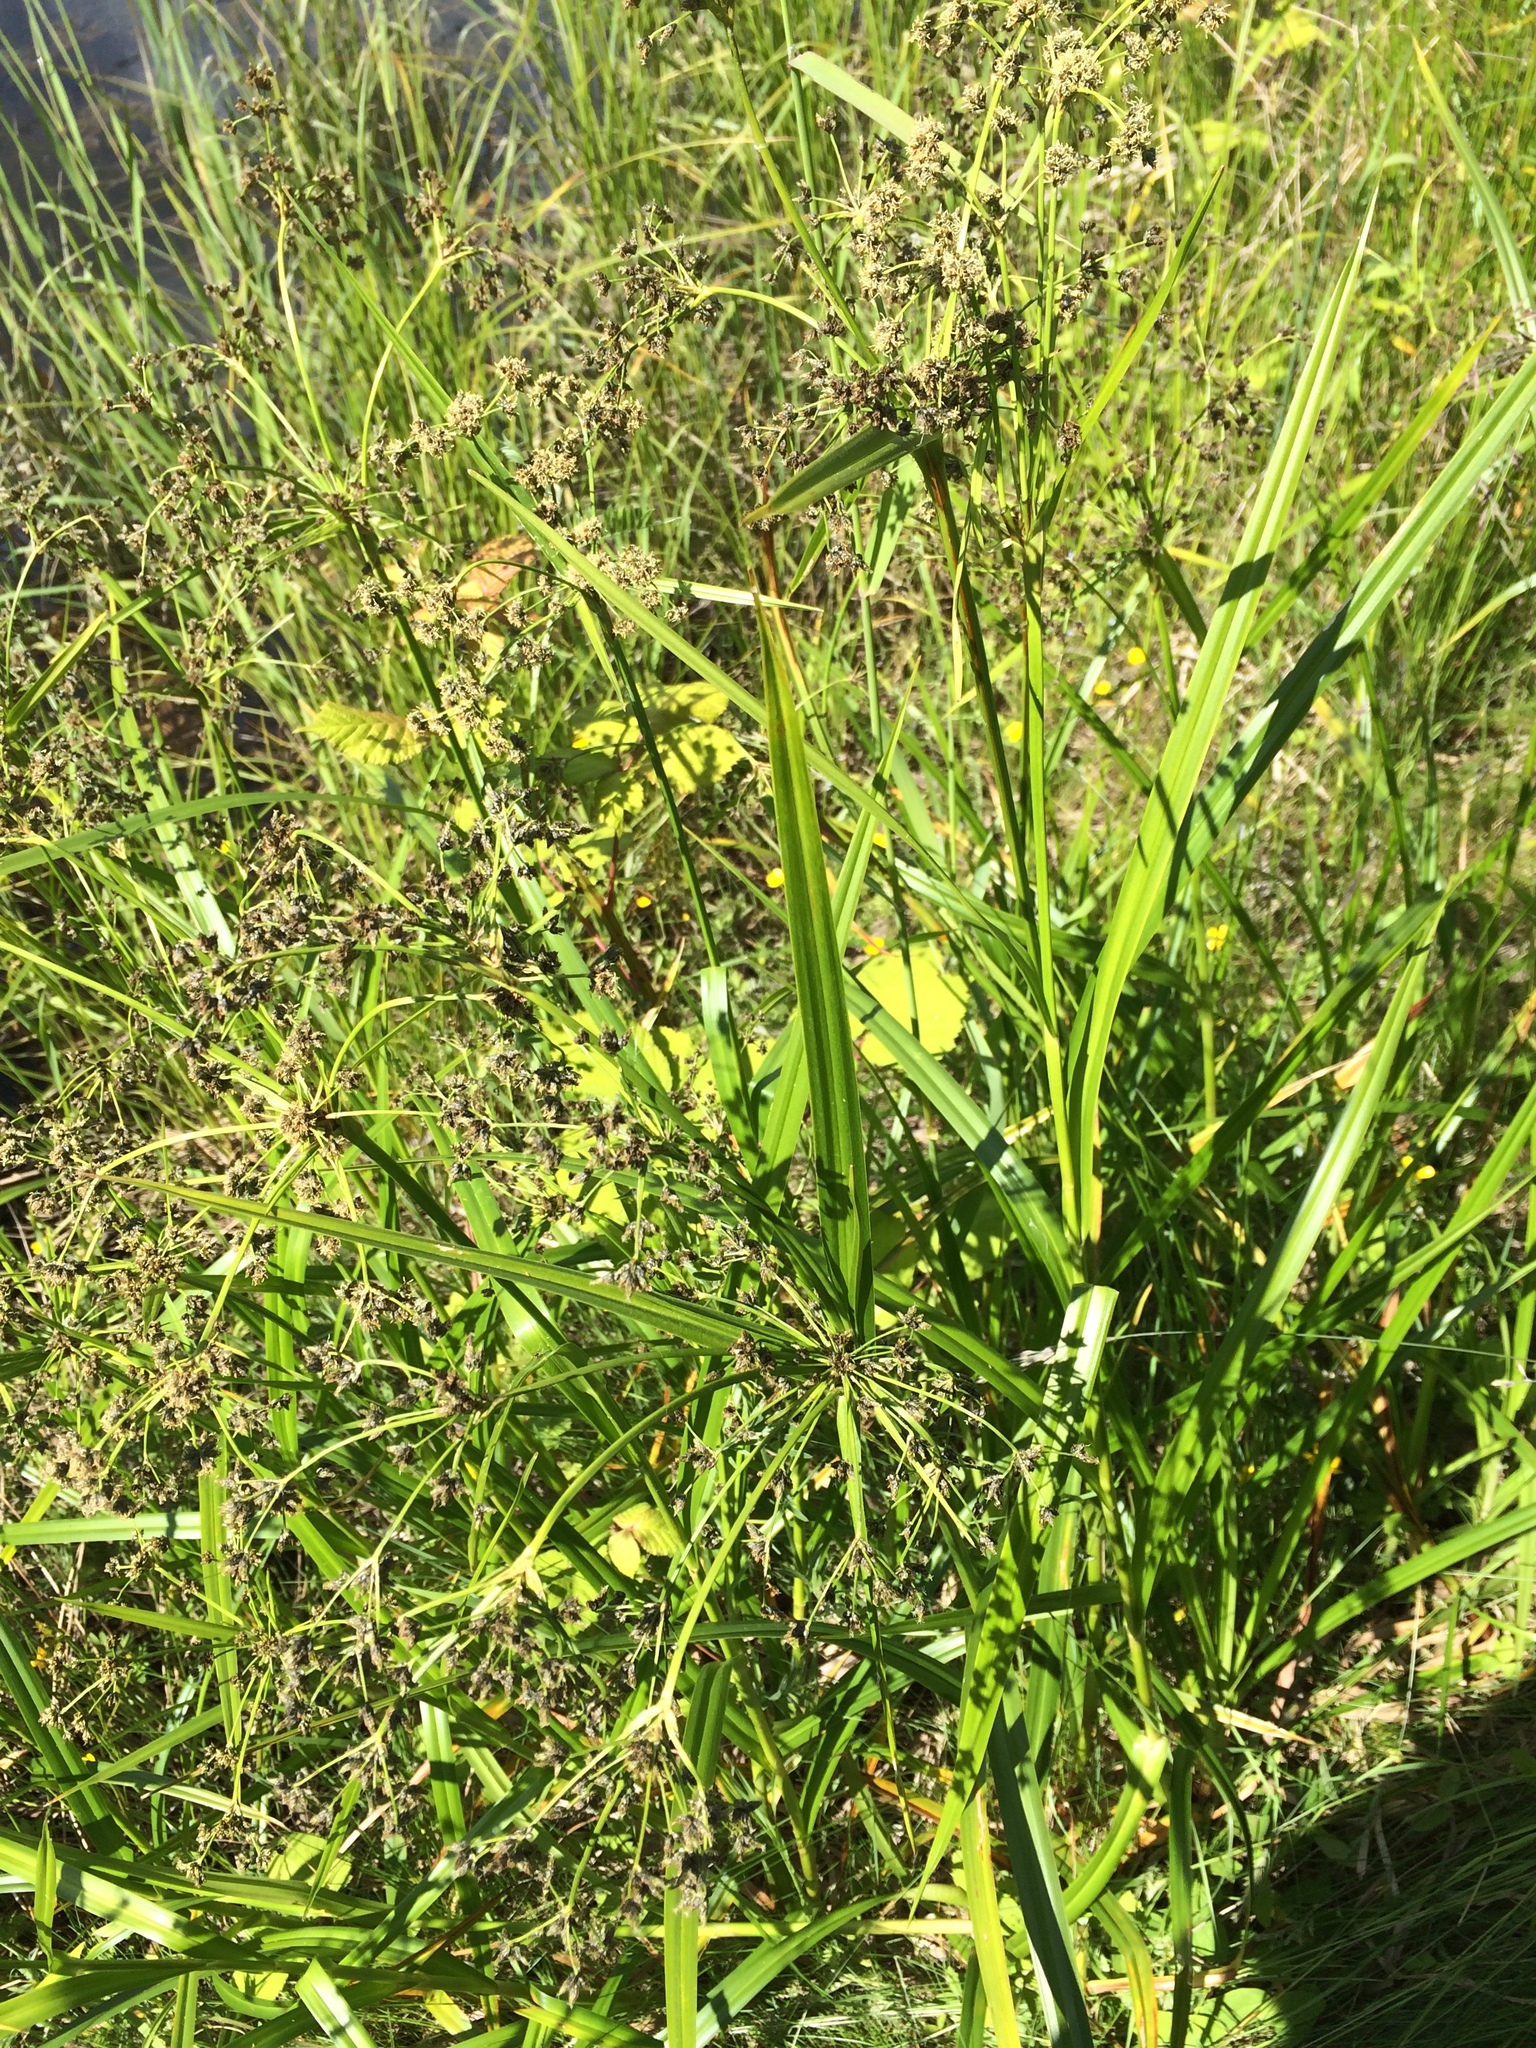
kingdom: Plantae
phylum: Tracheophyta
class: Liliopsida
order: Poales
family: Cyperaceae
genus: Scirpus
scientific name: Scirpus microcarpus
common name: Panicled bulrush
